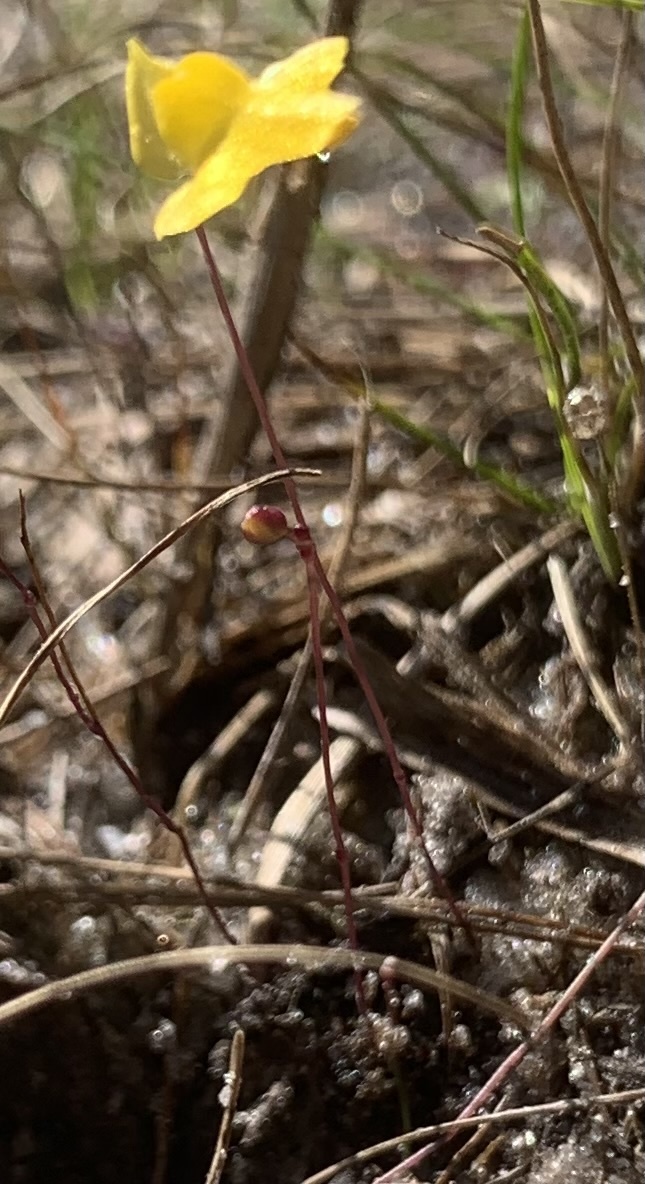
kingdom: Plantae
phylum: Tracheophyta
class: Magnoliopsida
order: Lamiales
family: Lentibulariaceae
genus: Utricularia
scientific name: Utricularia subulata
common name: Tiny bladderwort
